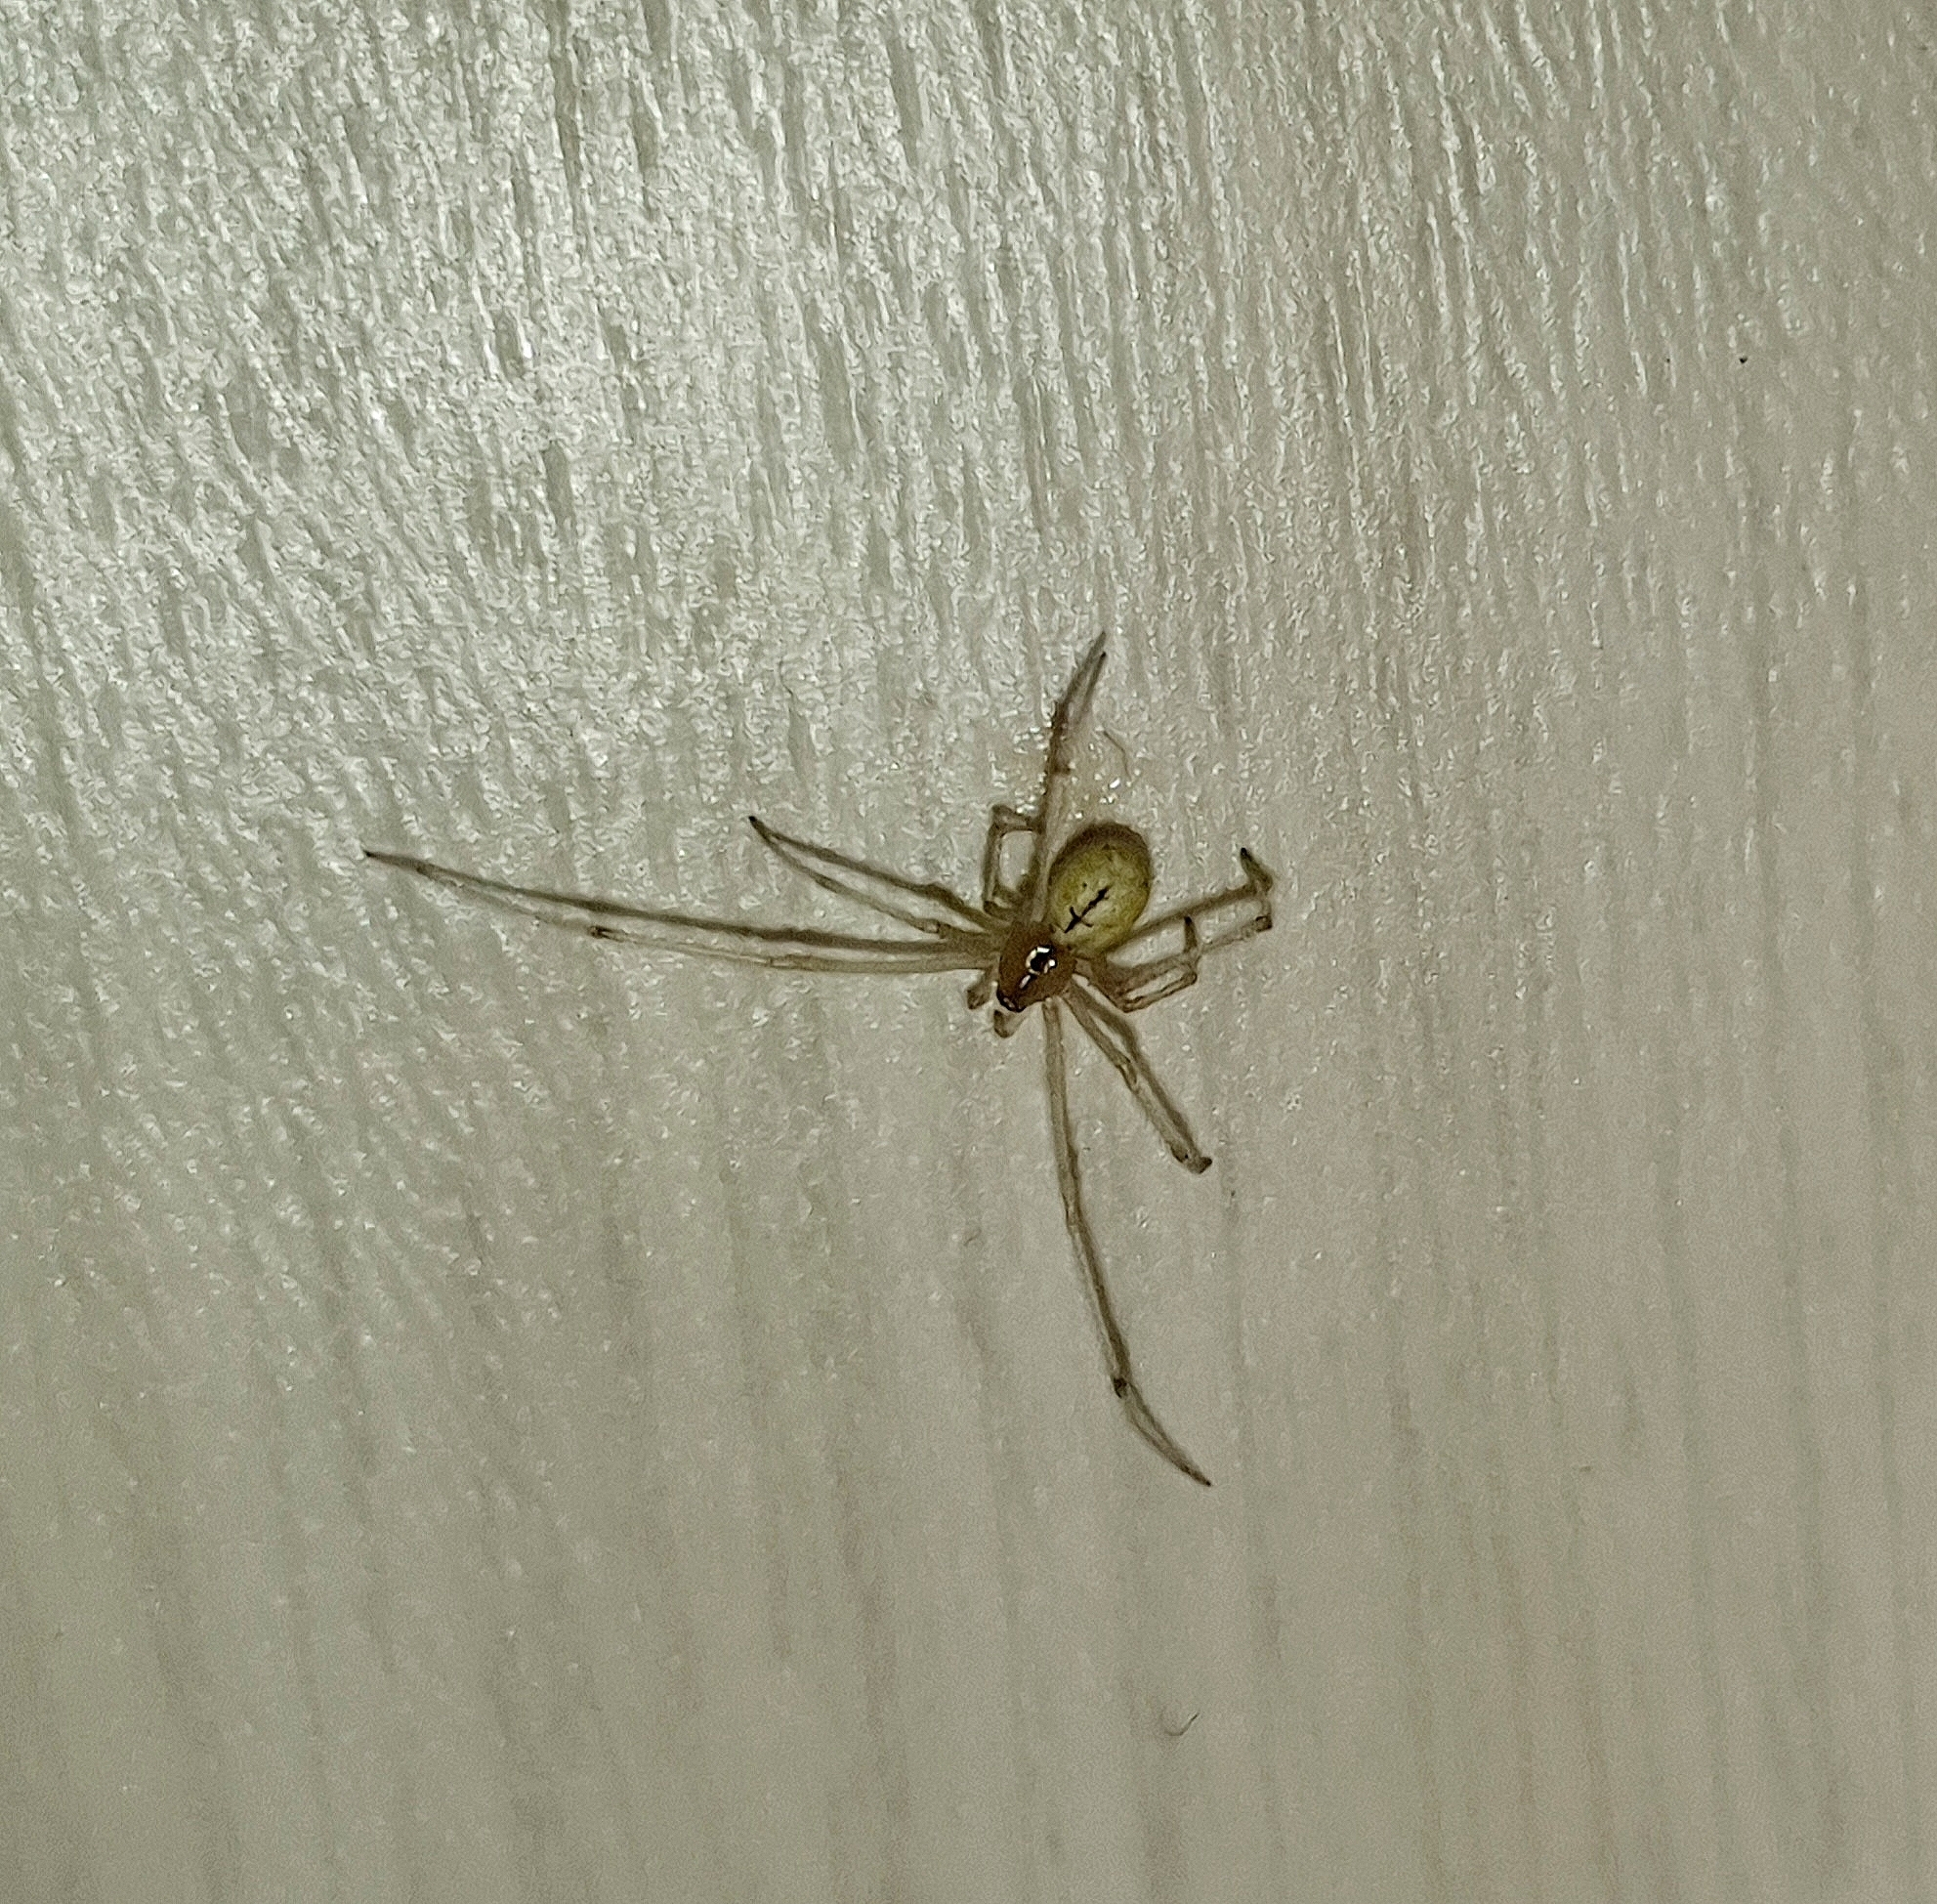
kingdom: Animalia
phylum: Arthropoda
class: Arachnida
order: Araneae
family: Theridiidae
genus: Enoplognatha
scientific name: Enoplognatha
